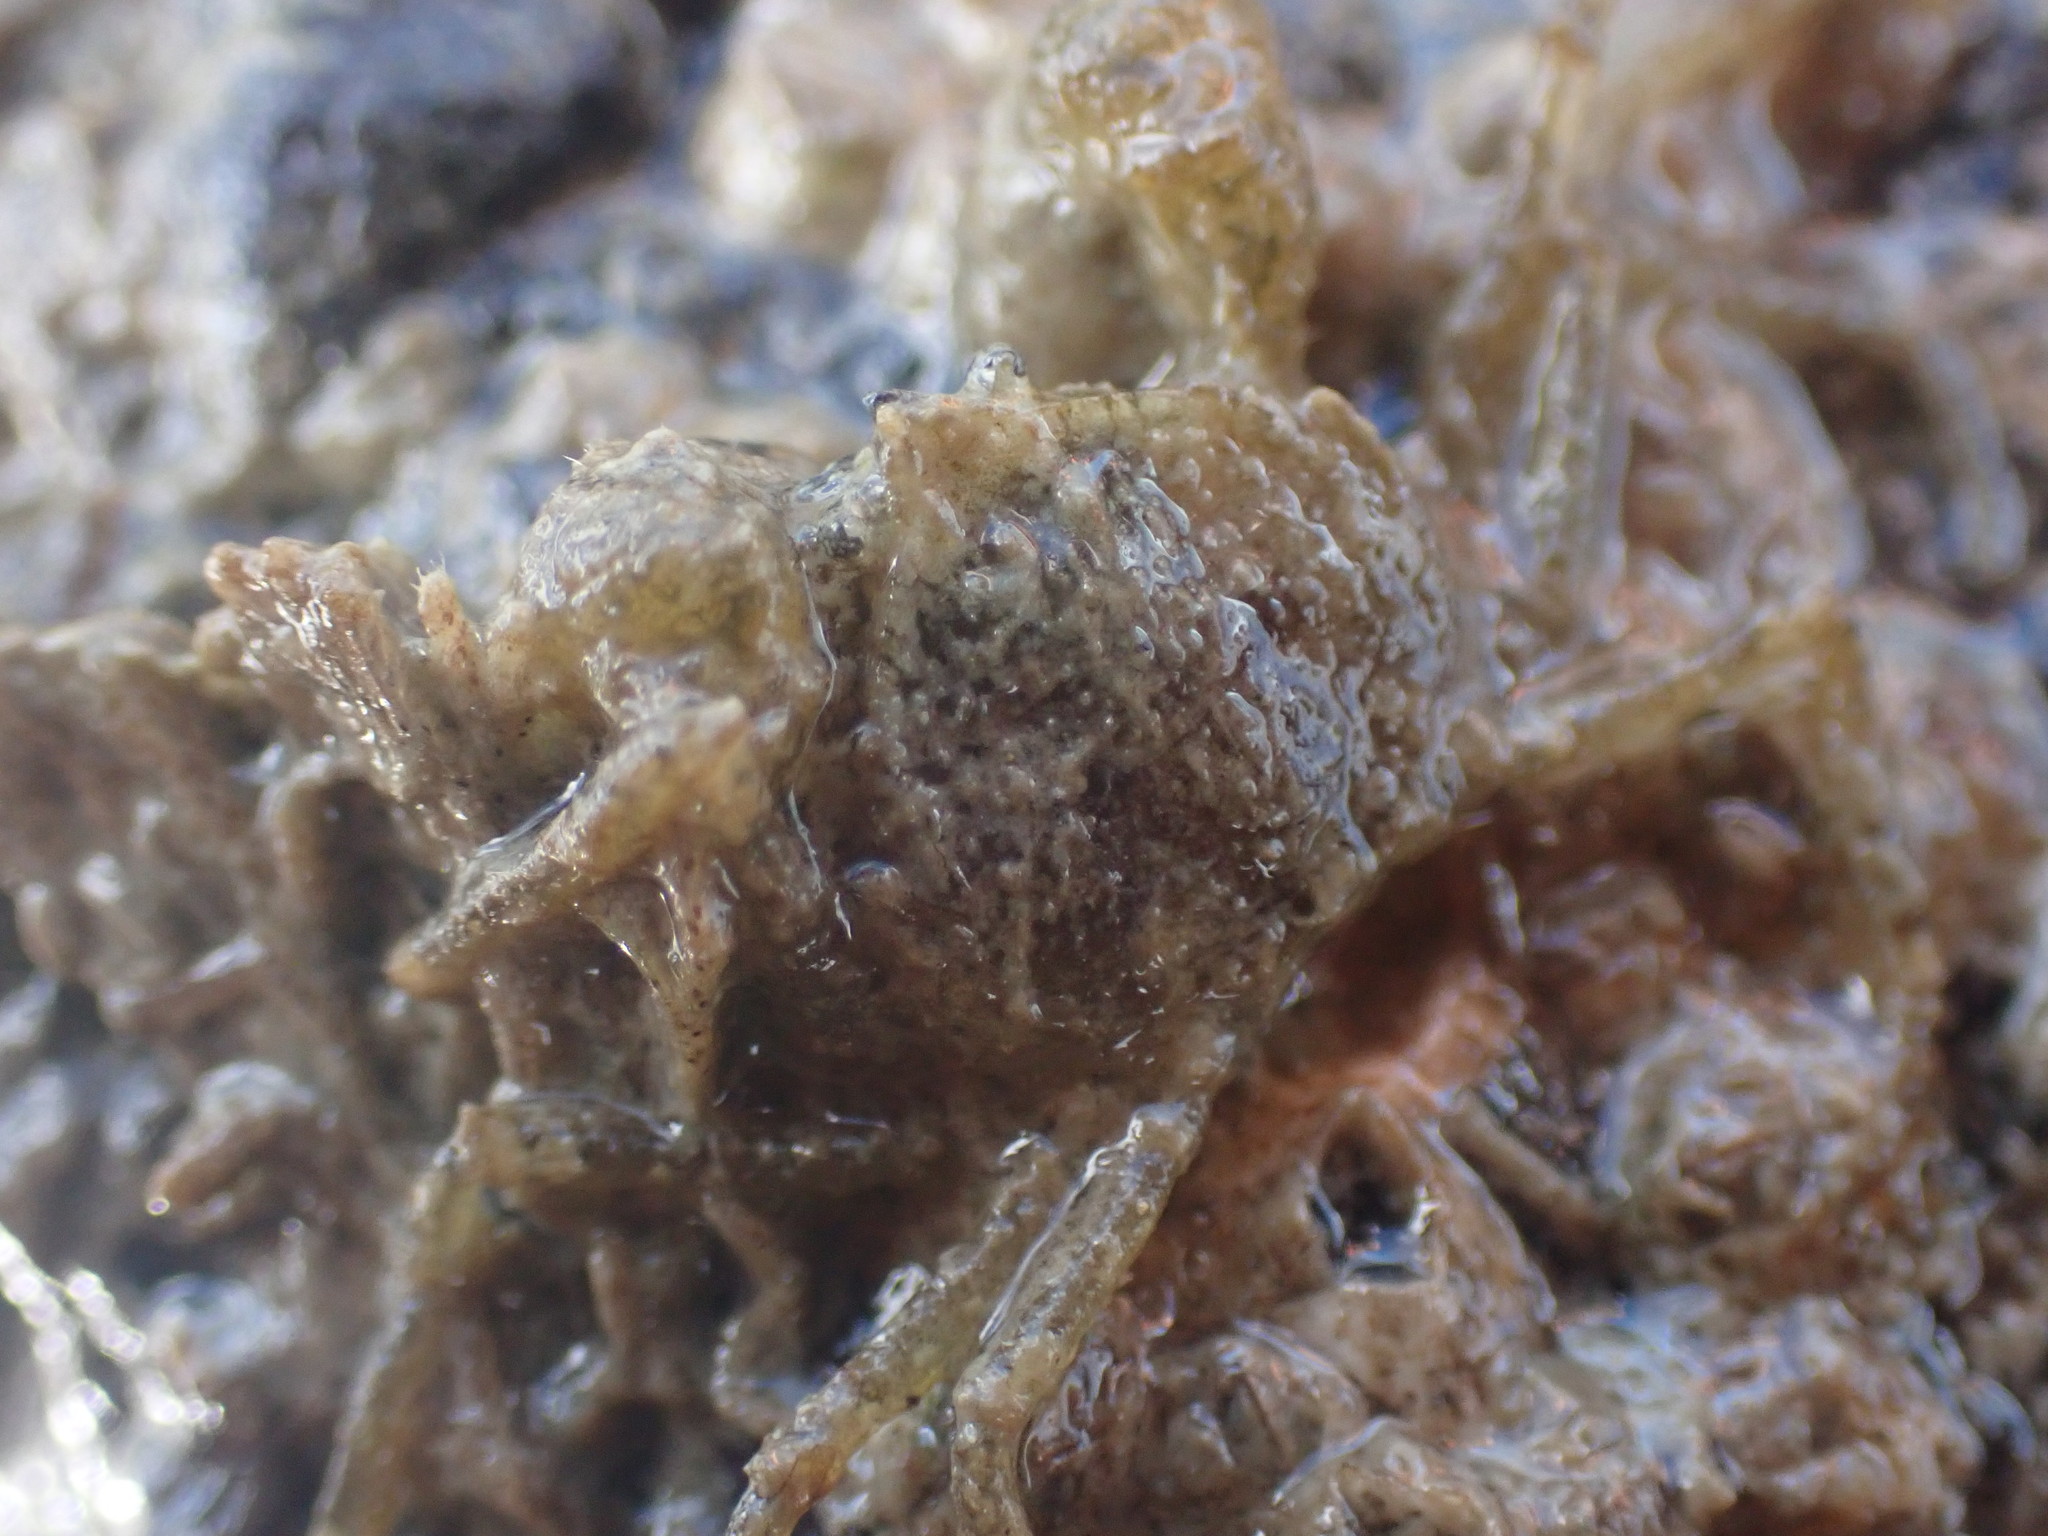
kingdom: Animalia
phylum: Arthropoda
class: Malacostraca
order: Decapoda
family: Hymenosomatidae
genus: Halicarcinus
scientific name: Halicarcinus varius
